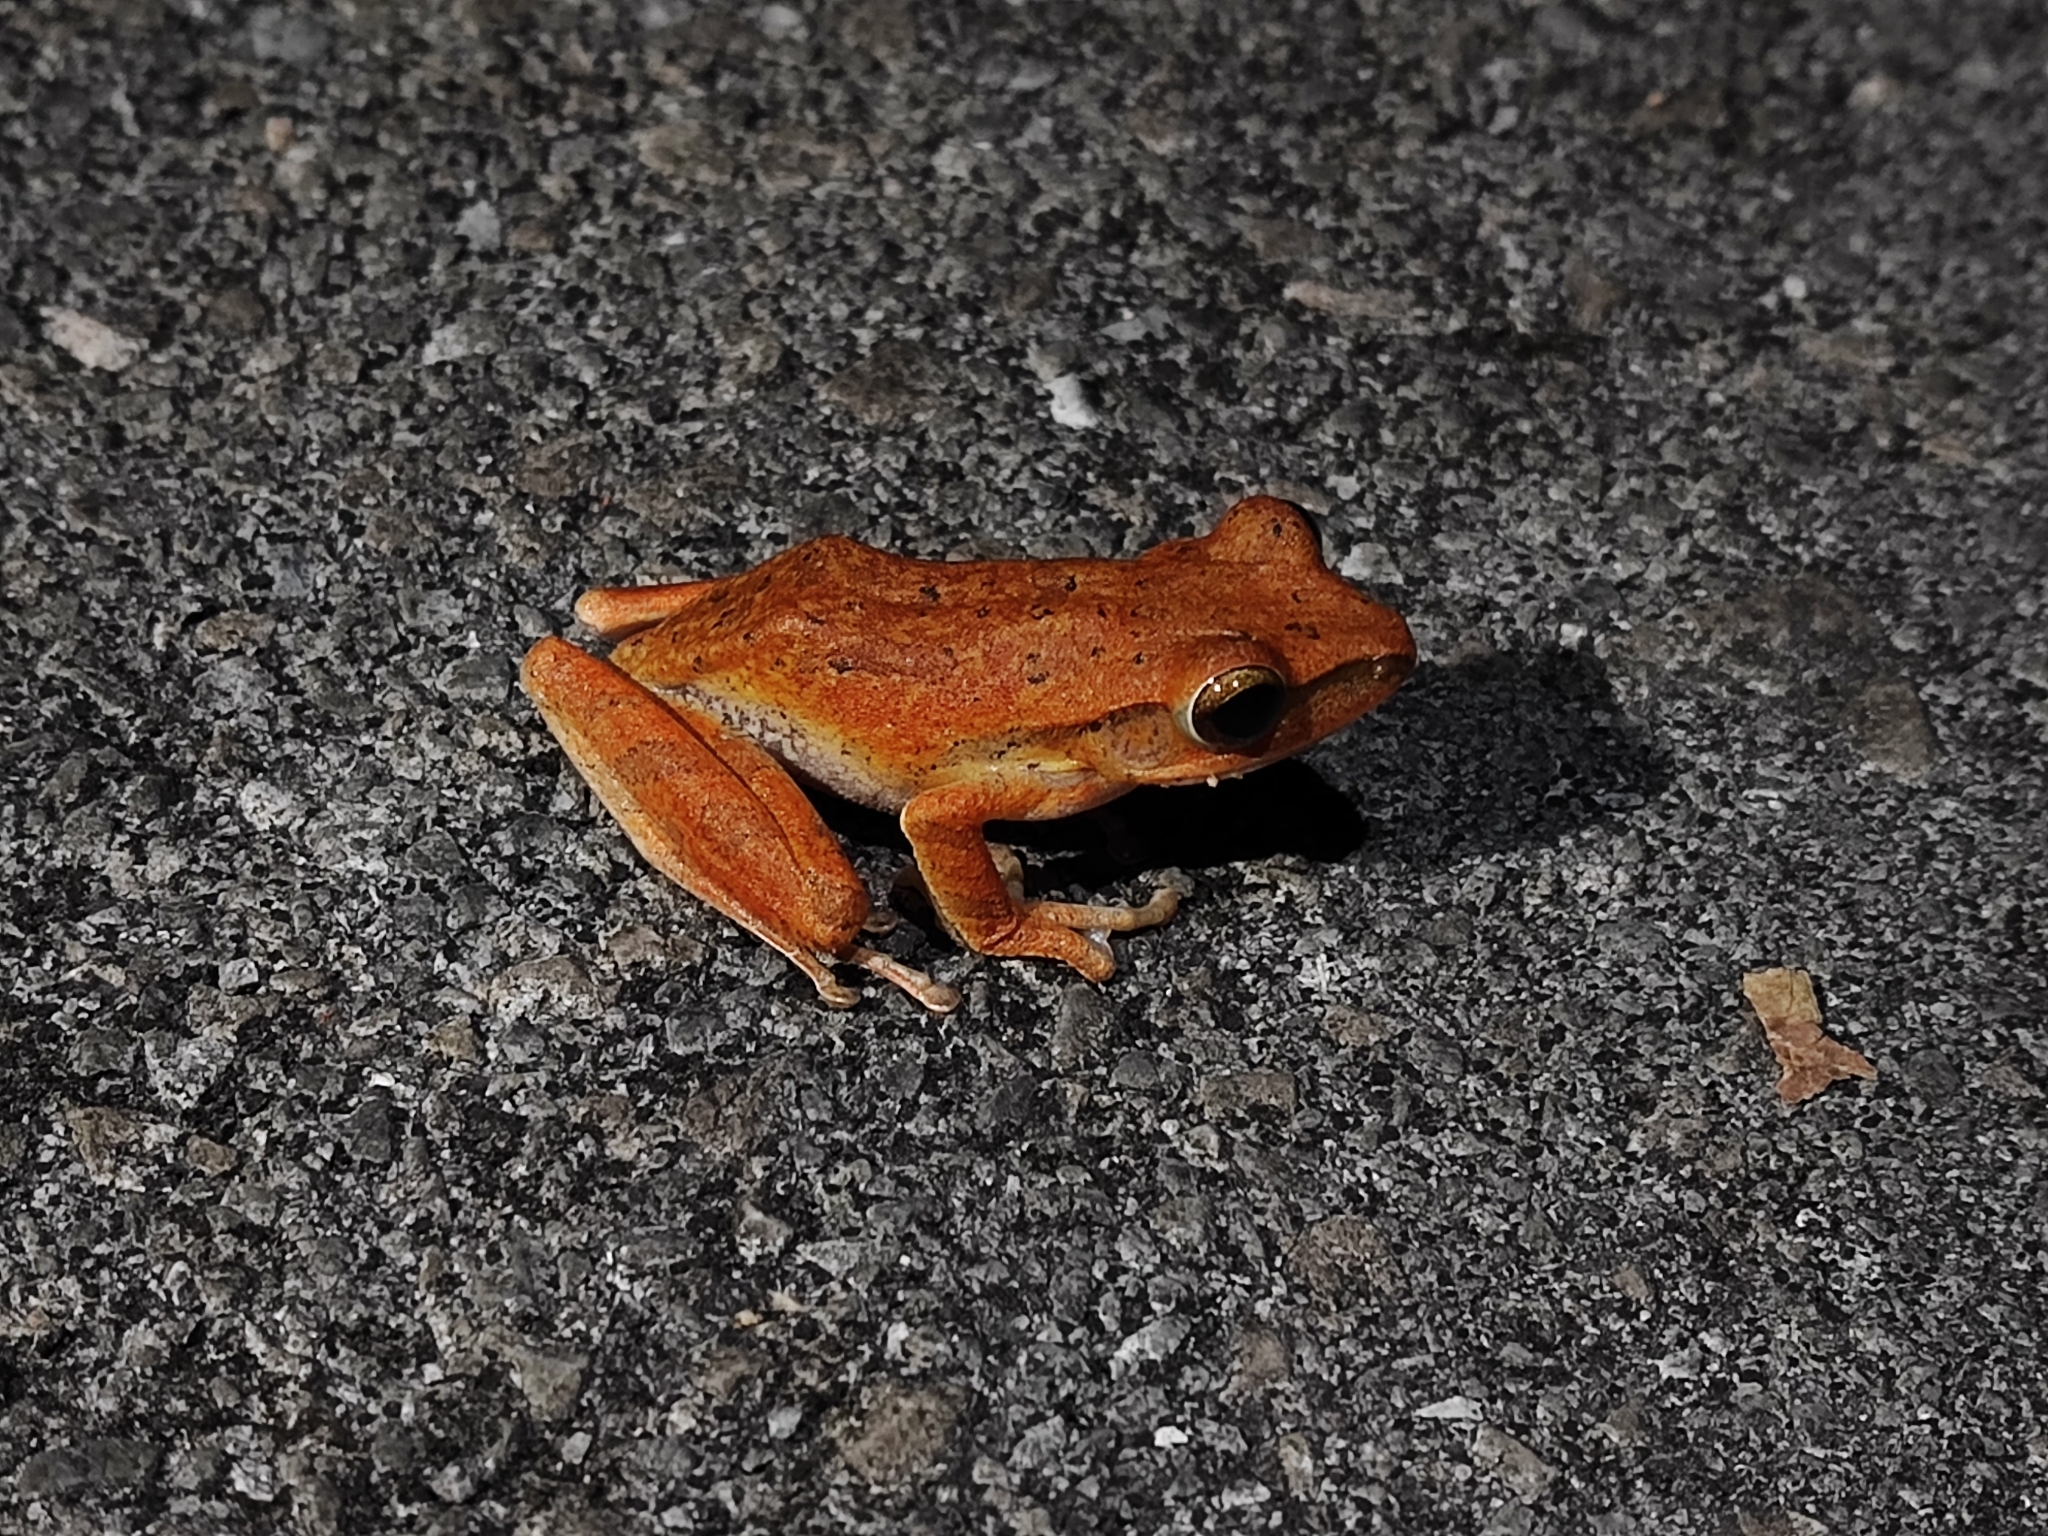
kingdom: Animalia
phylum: Chordata
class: Amphibia
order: Anura
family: Rhacophoridae
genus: Polypedates
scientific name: Polypedates leucomystax
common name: Common tree frog/four-lined tree frog
